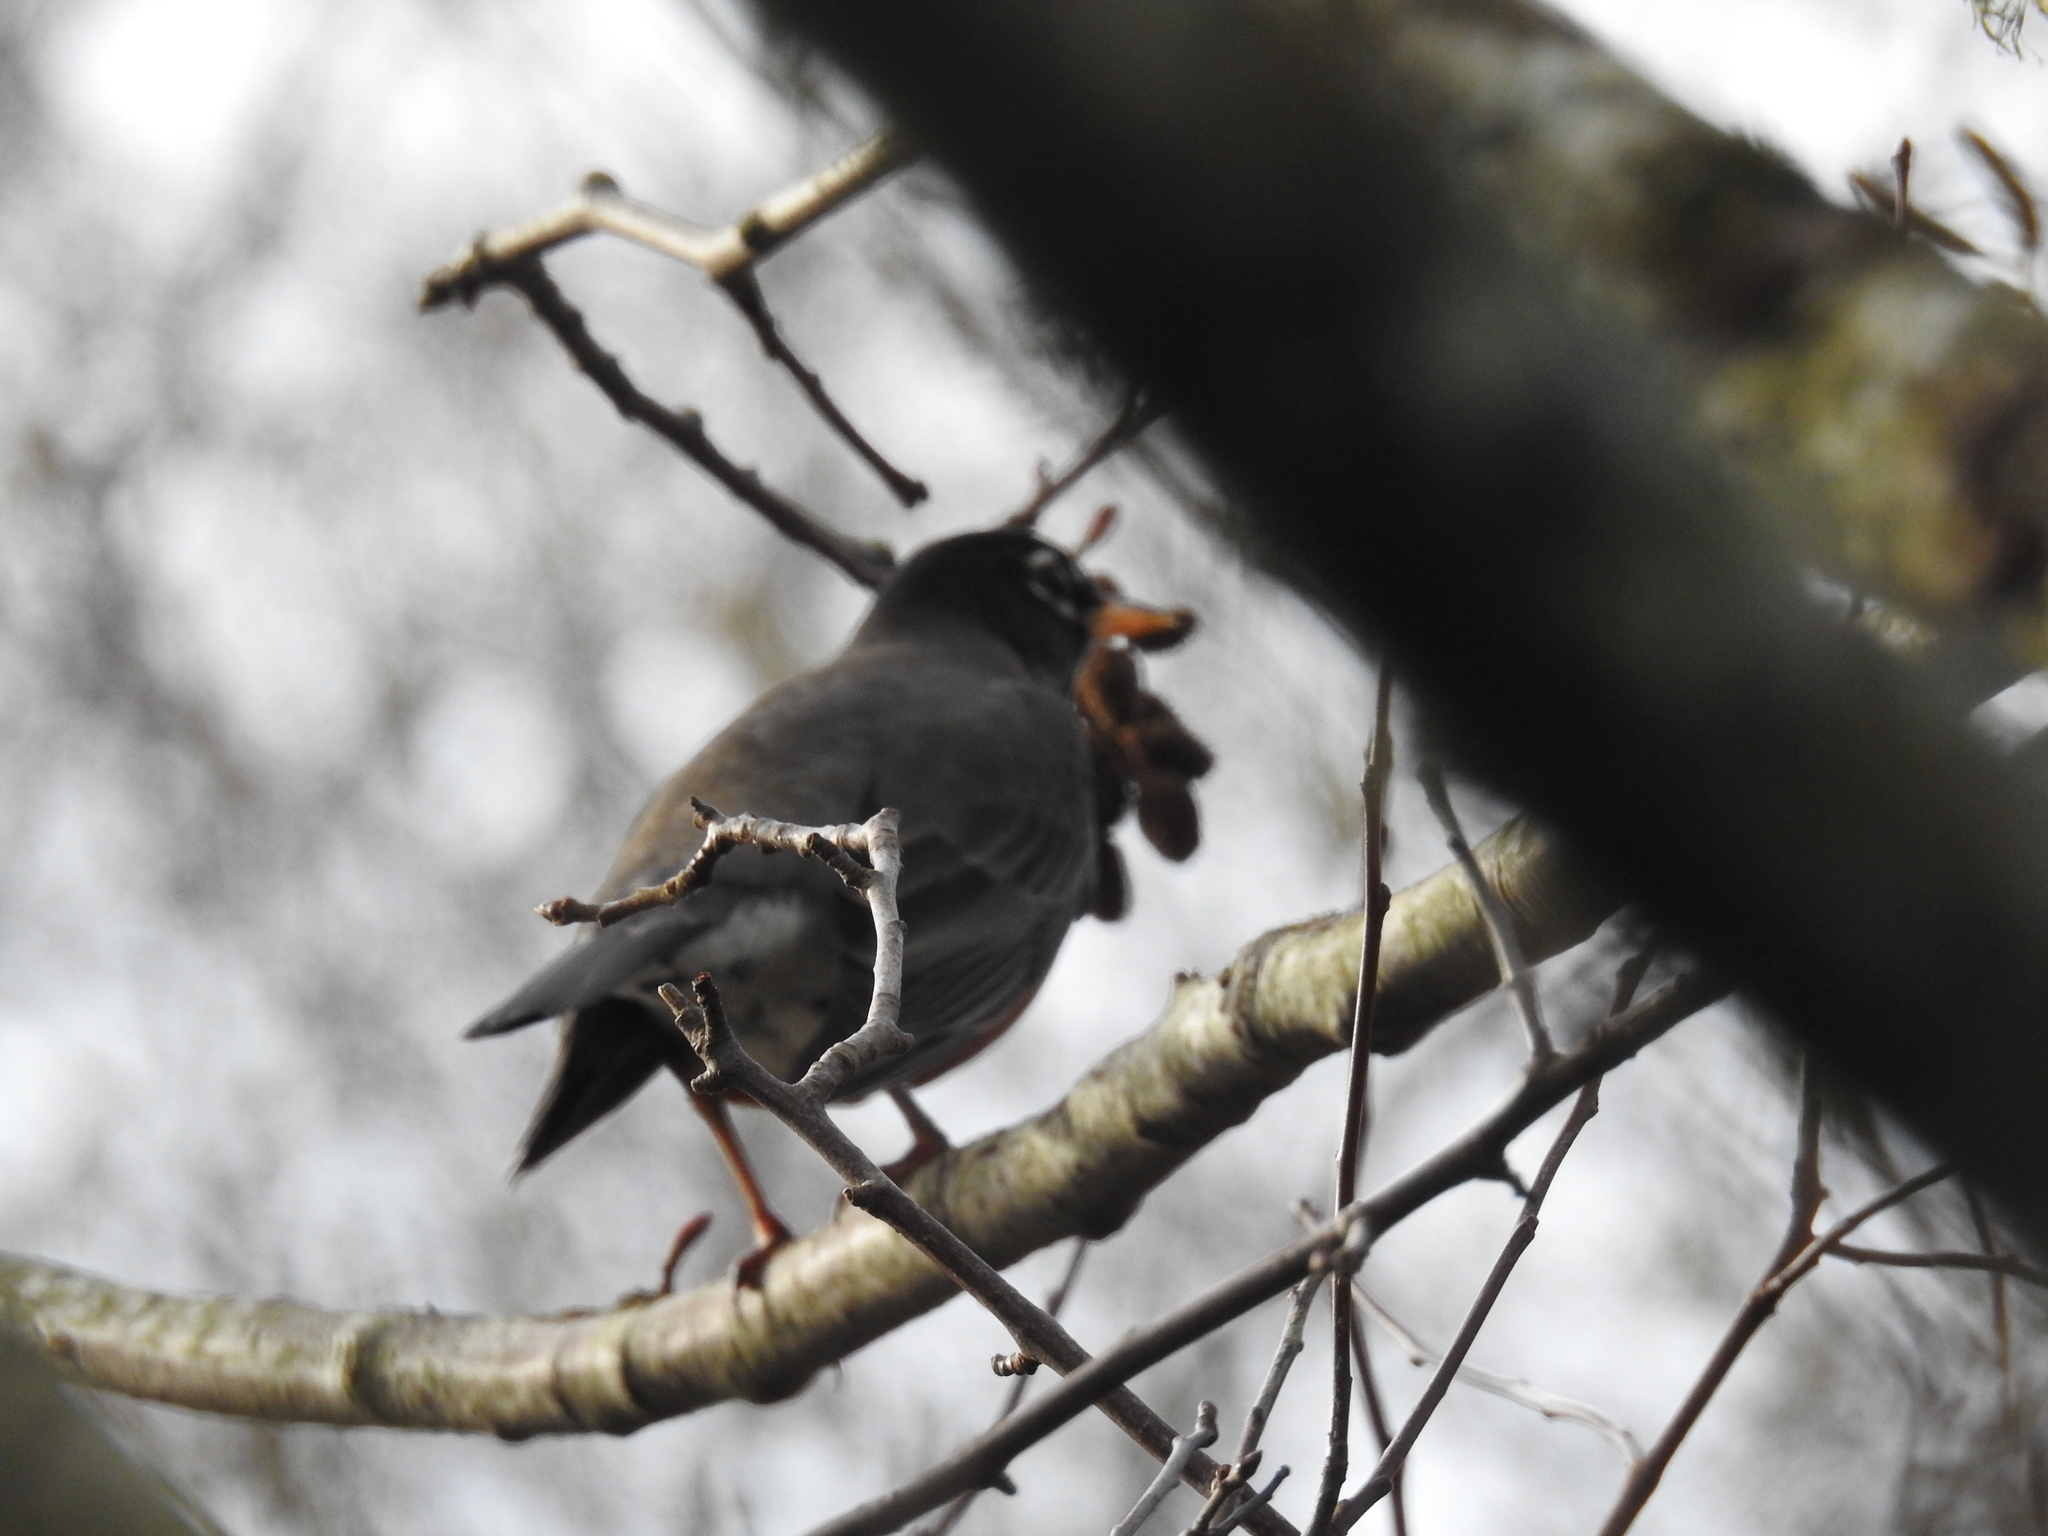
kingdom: Animalia
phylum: Chordata
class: Aves
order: Passeriformes
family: Turdidae
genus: Turdus
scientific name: Turdus migratorius
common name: American robin
